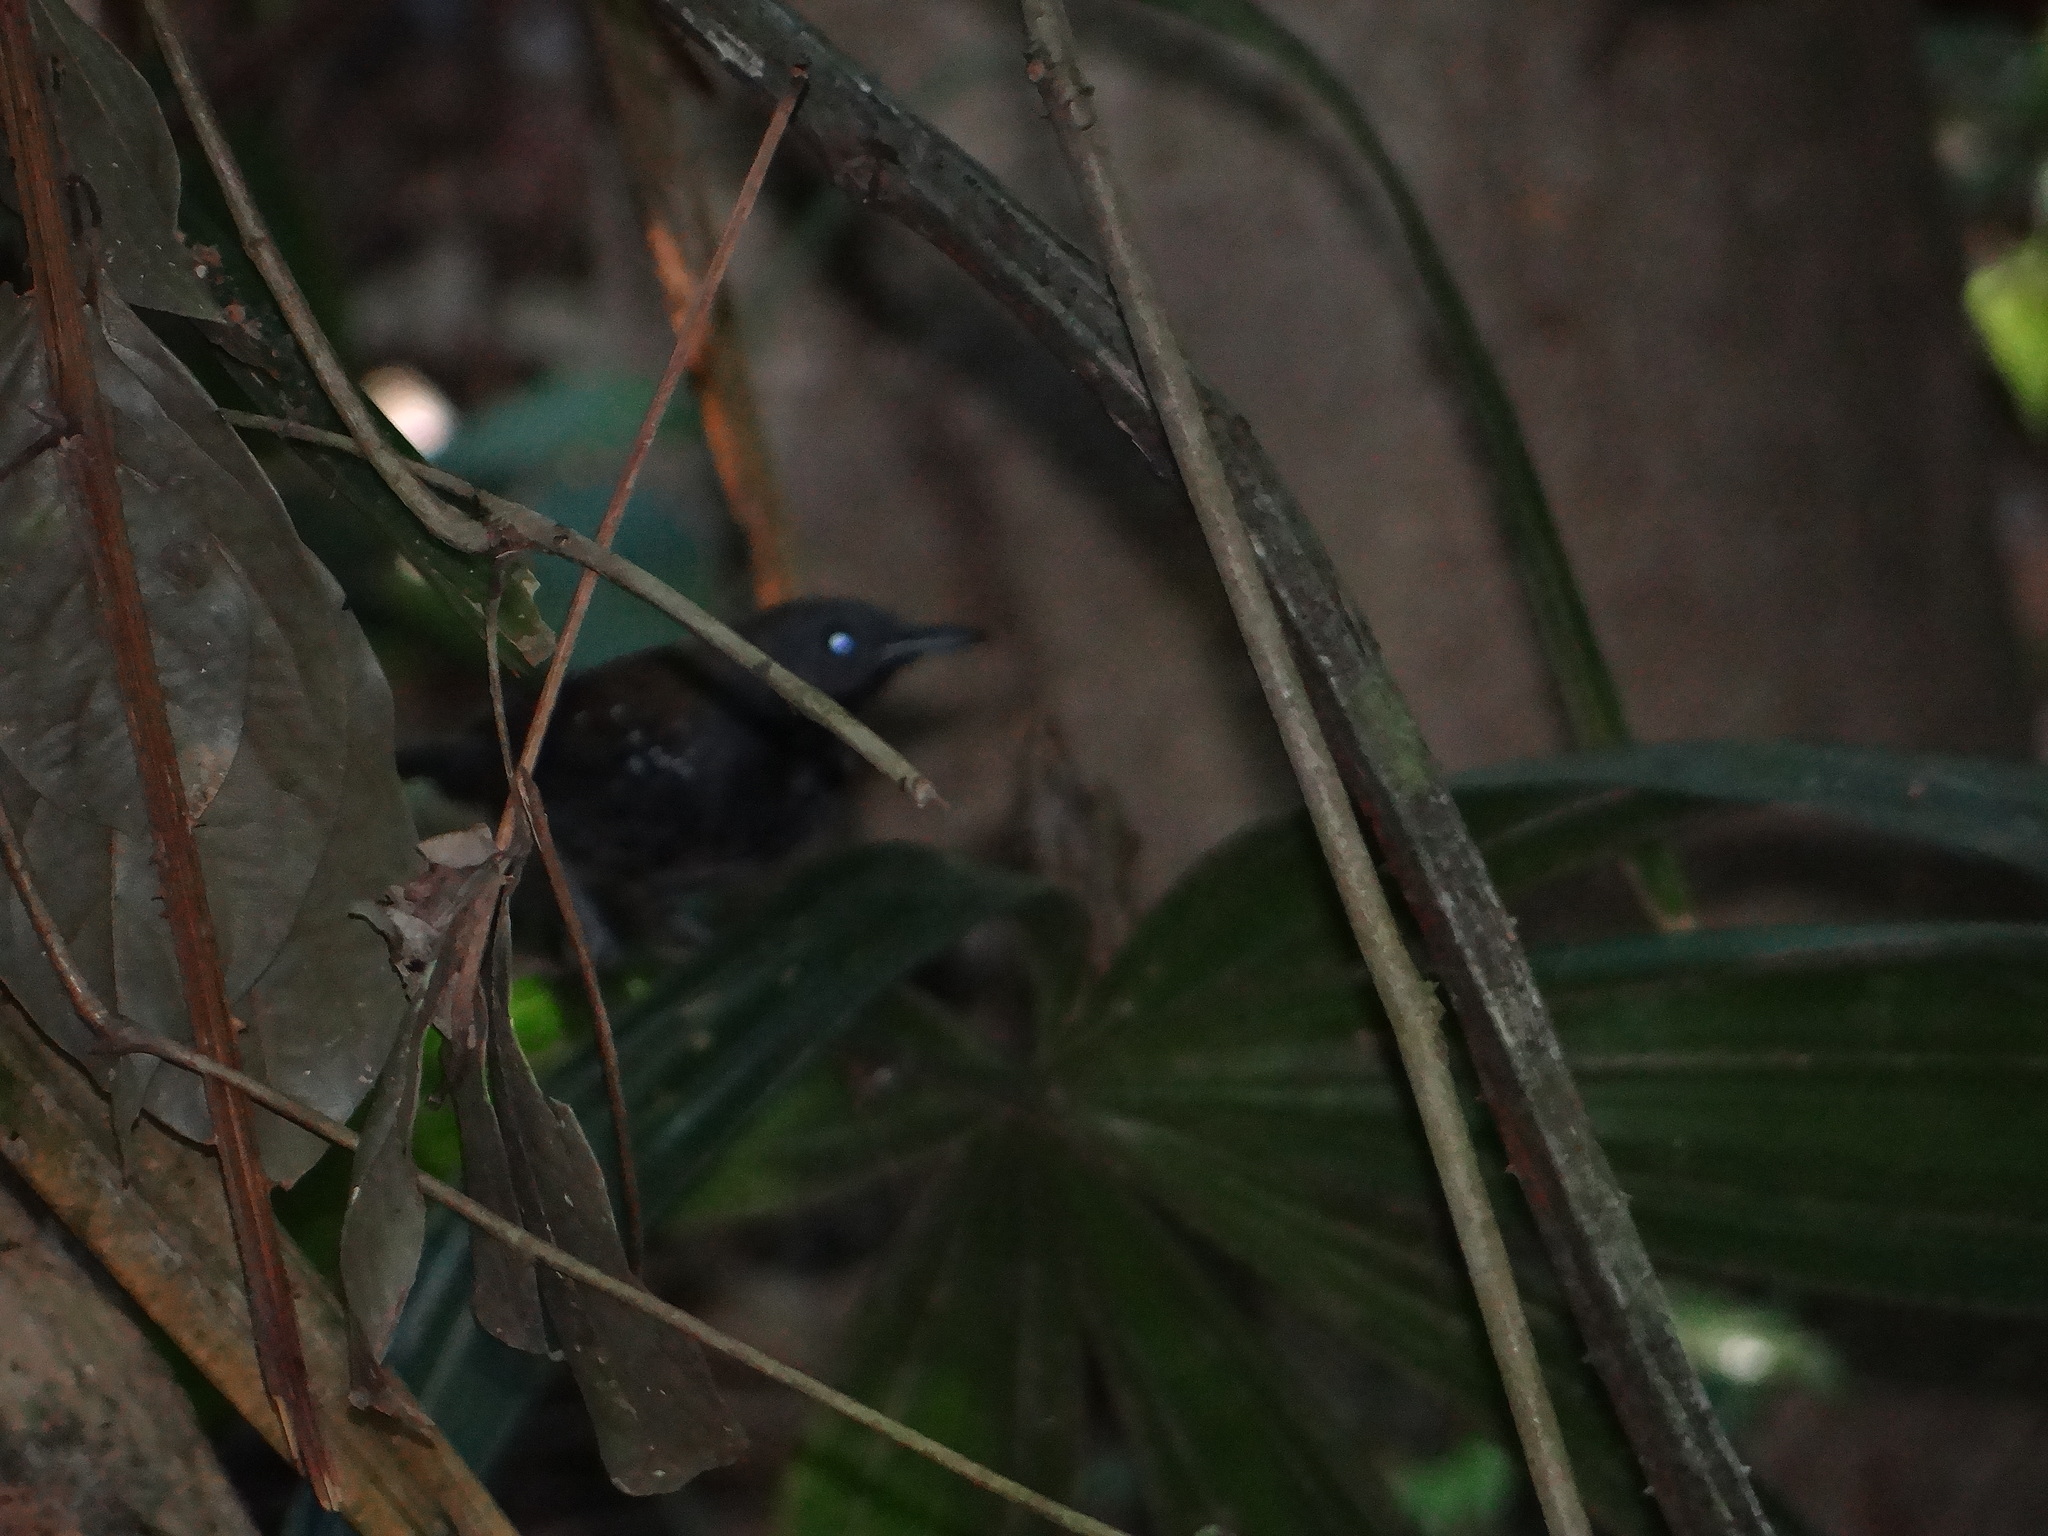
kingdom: Animalia
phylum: Chordata
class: Aves
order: Passeriformes
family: Thamnophilidae
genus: Myrmeciza
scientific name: Myrmeciza atrothorax
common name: Black-throated antbird
